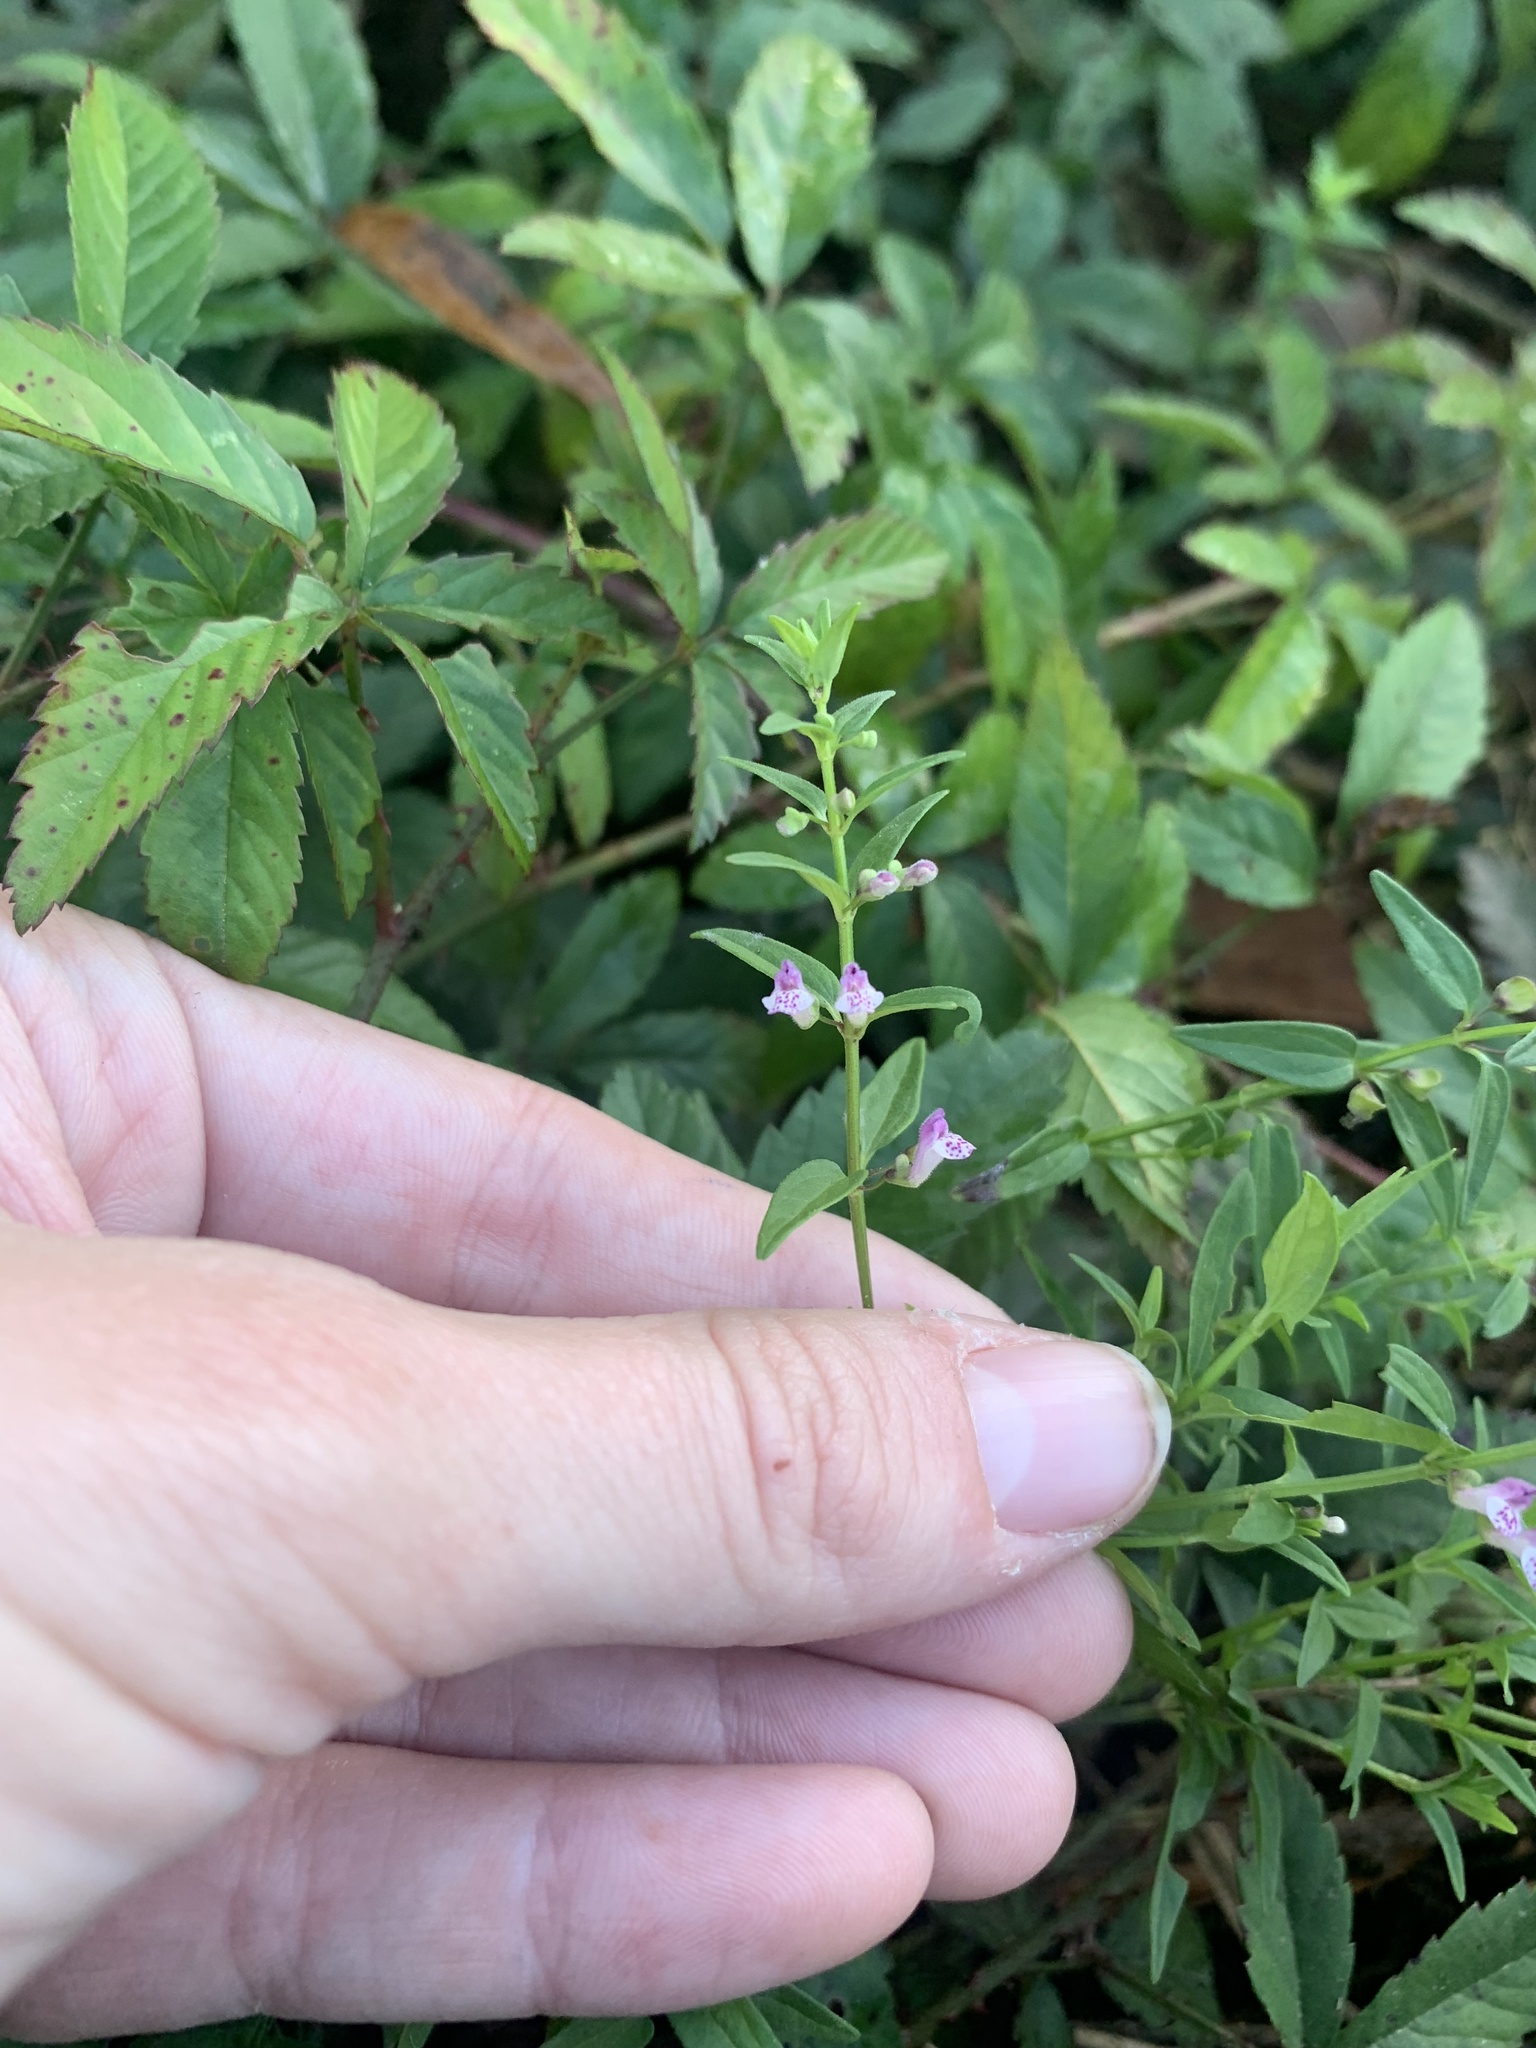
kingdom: Plantae
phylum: Tracheophyta
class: Magnoliopsida
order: Lamiales
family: Lamiaceae
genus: Scutellaria
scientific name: Scutellaria racemosa
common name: South american skullcap
